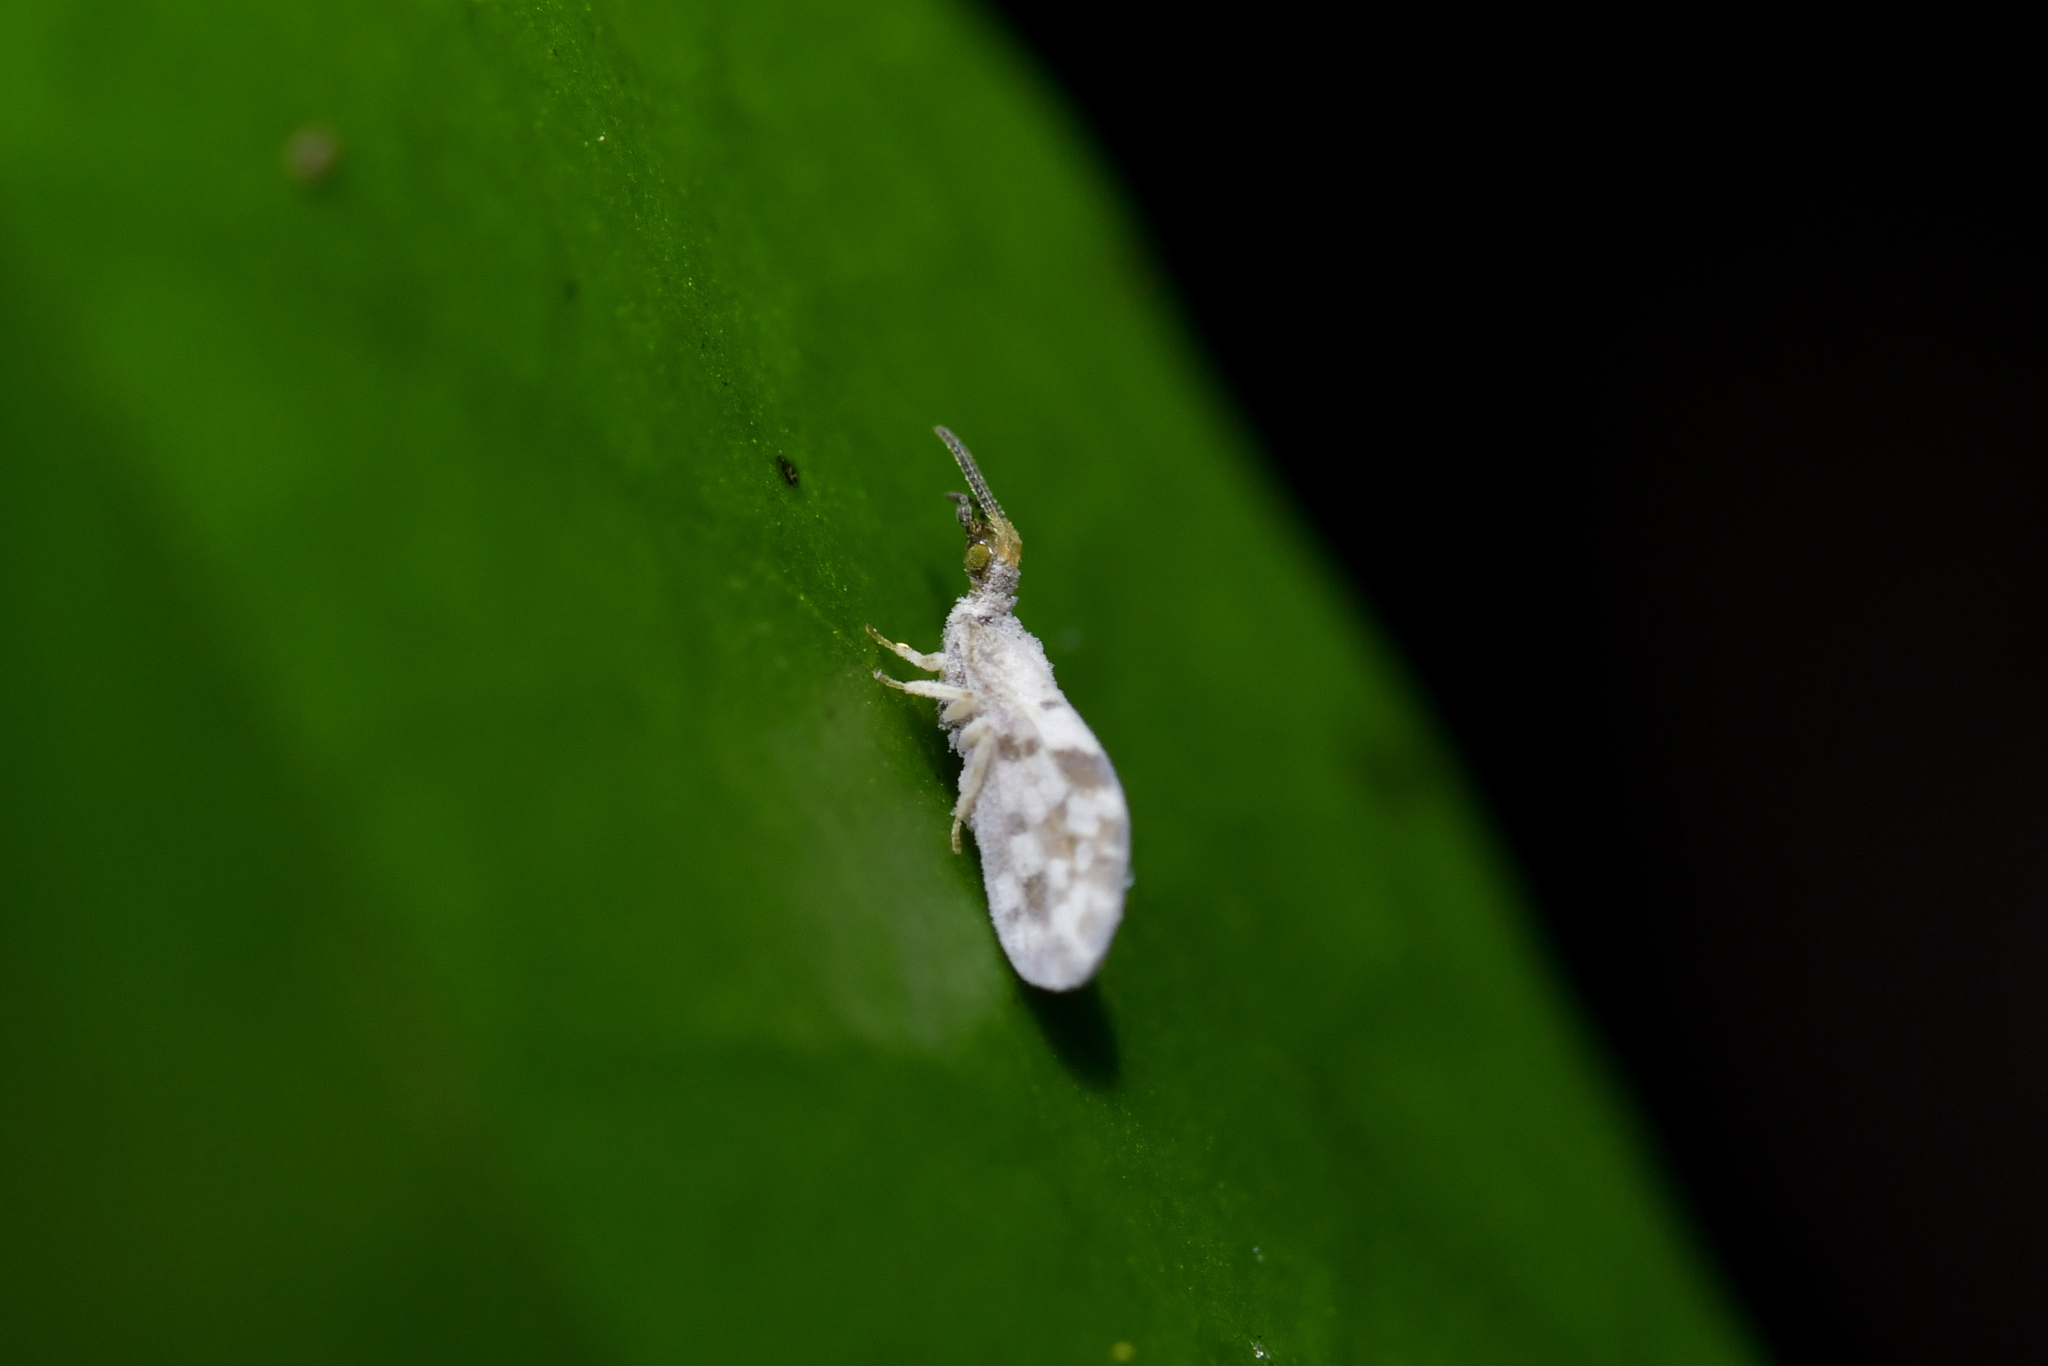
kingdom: Animalia
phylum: Arthropoda
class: Insecta
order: Neuroptera
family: Coniopterygidae
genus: Heteroconis
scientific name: Heteroconis ornata
